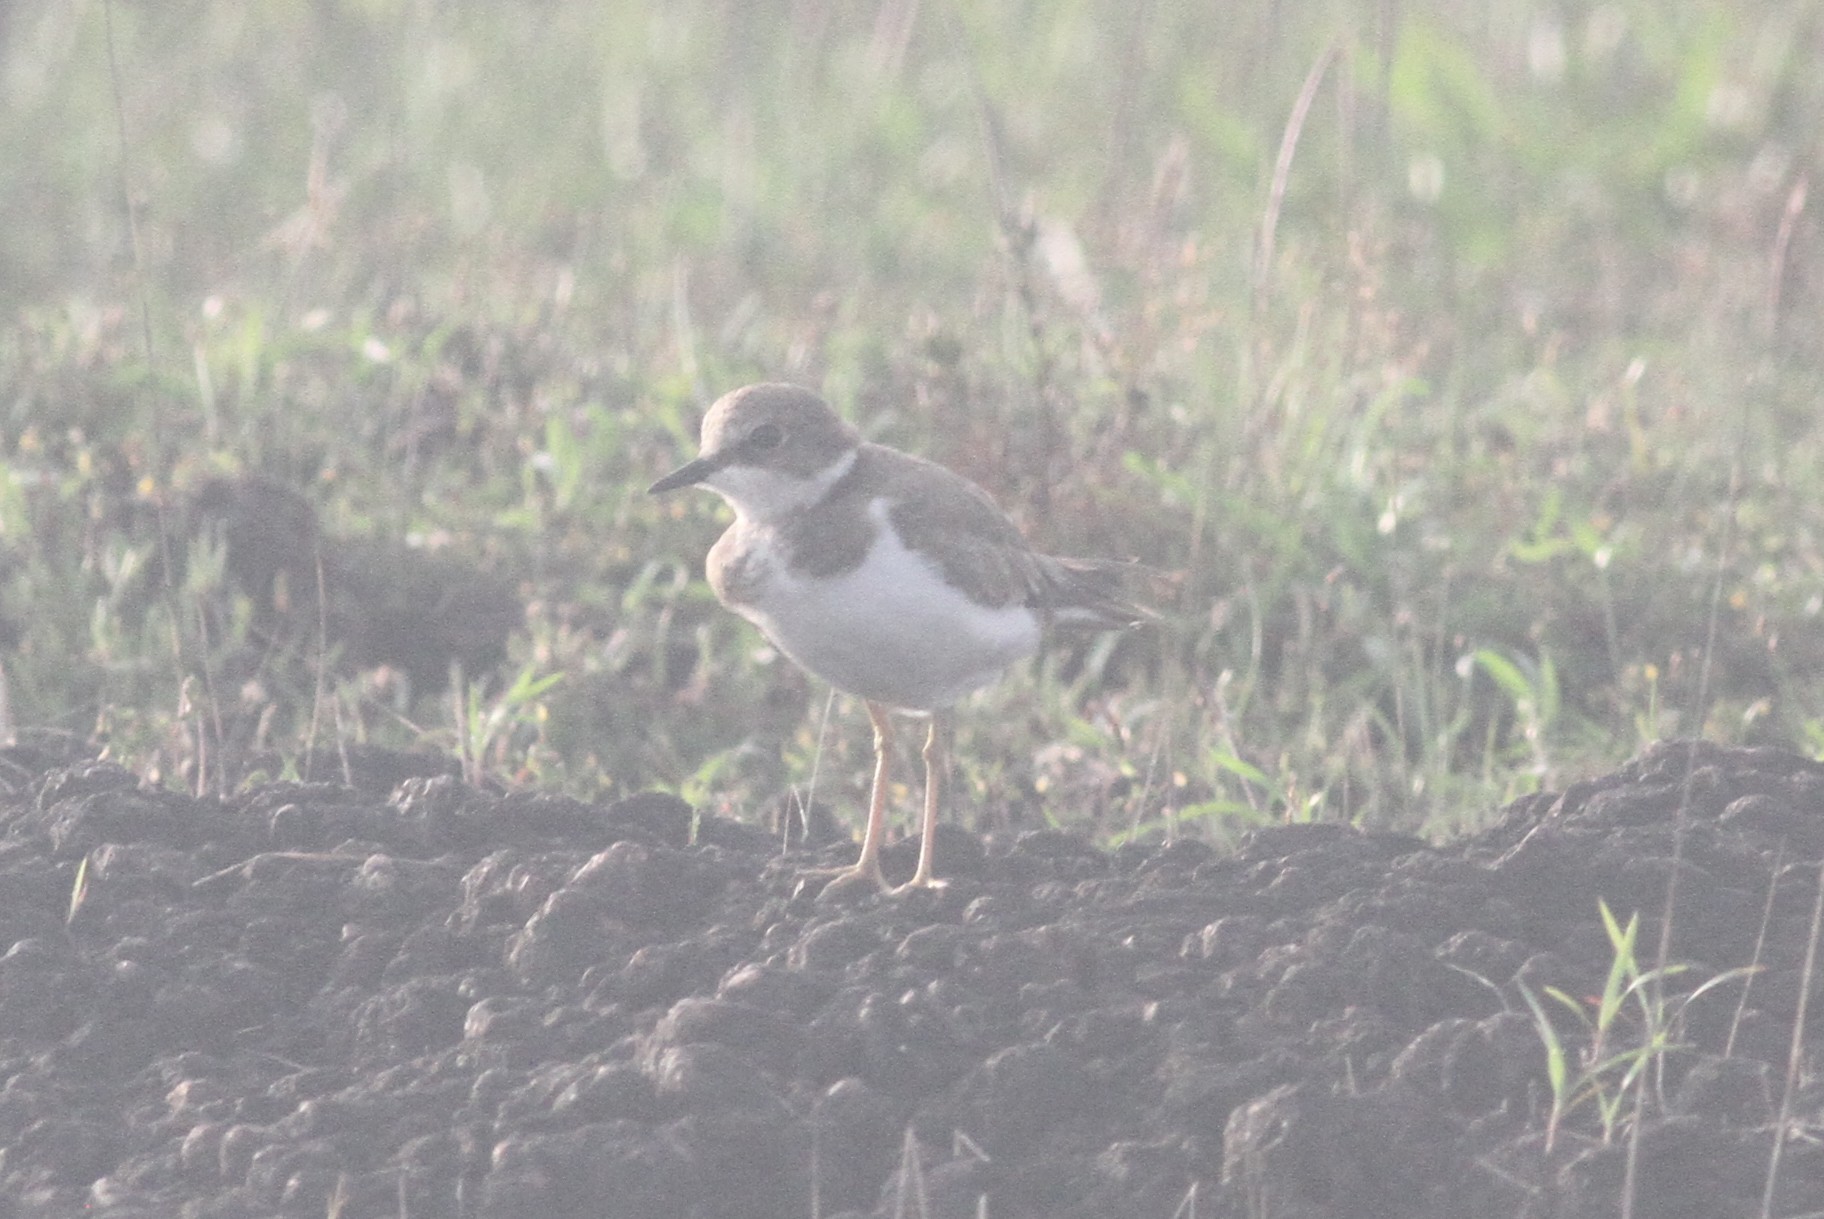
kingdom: Animalia
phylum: Chordata
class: Aves
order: Charadriiformes
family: Charadriidae
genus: Charadrius
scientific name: Charadrius dubius
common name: Little ringed plover
